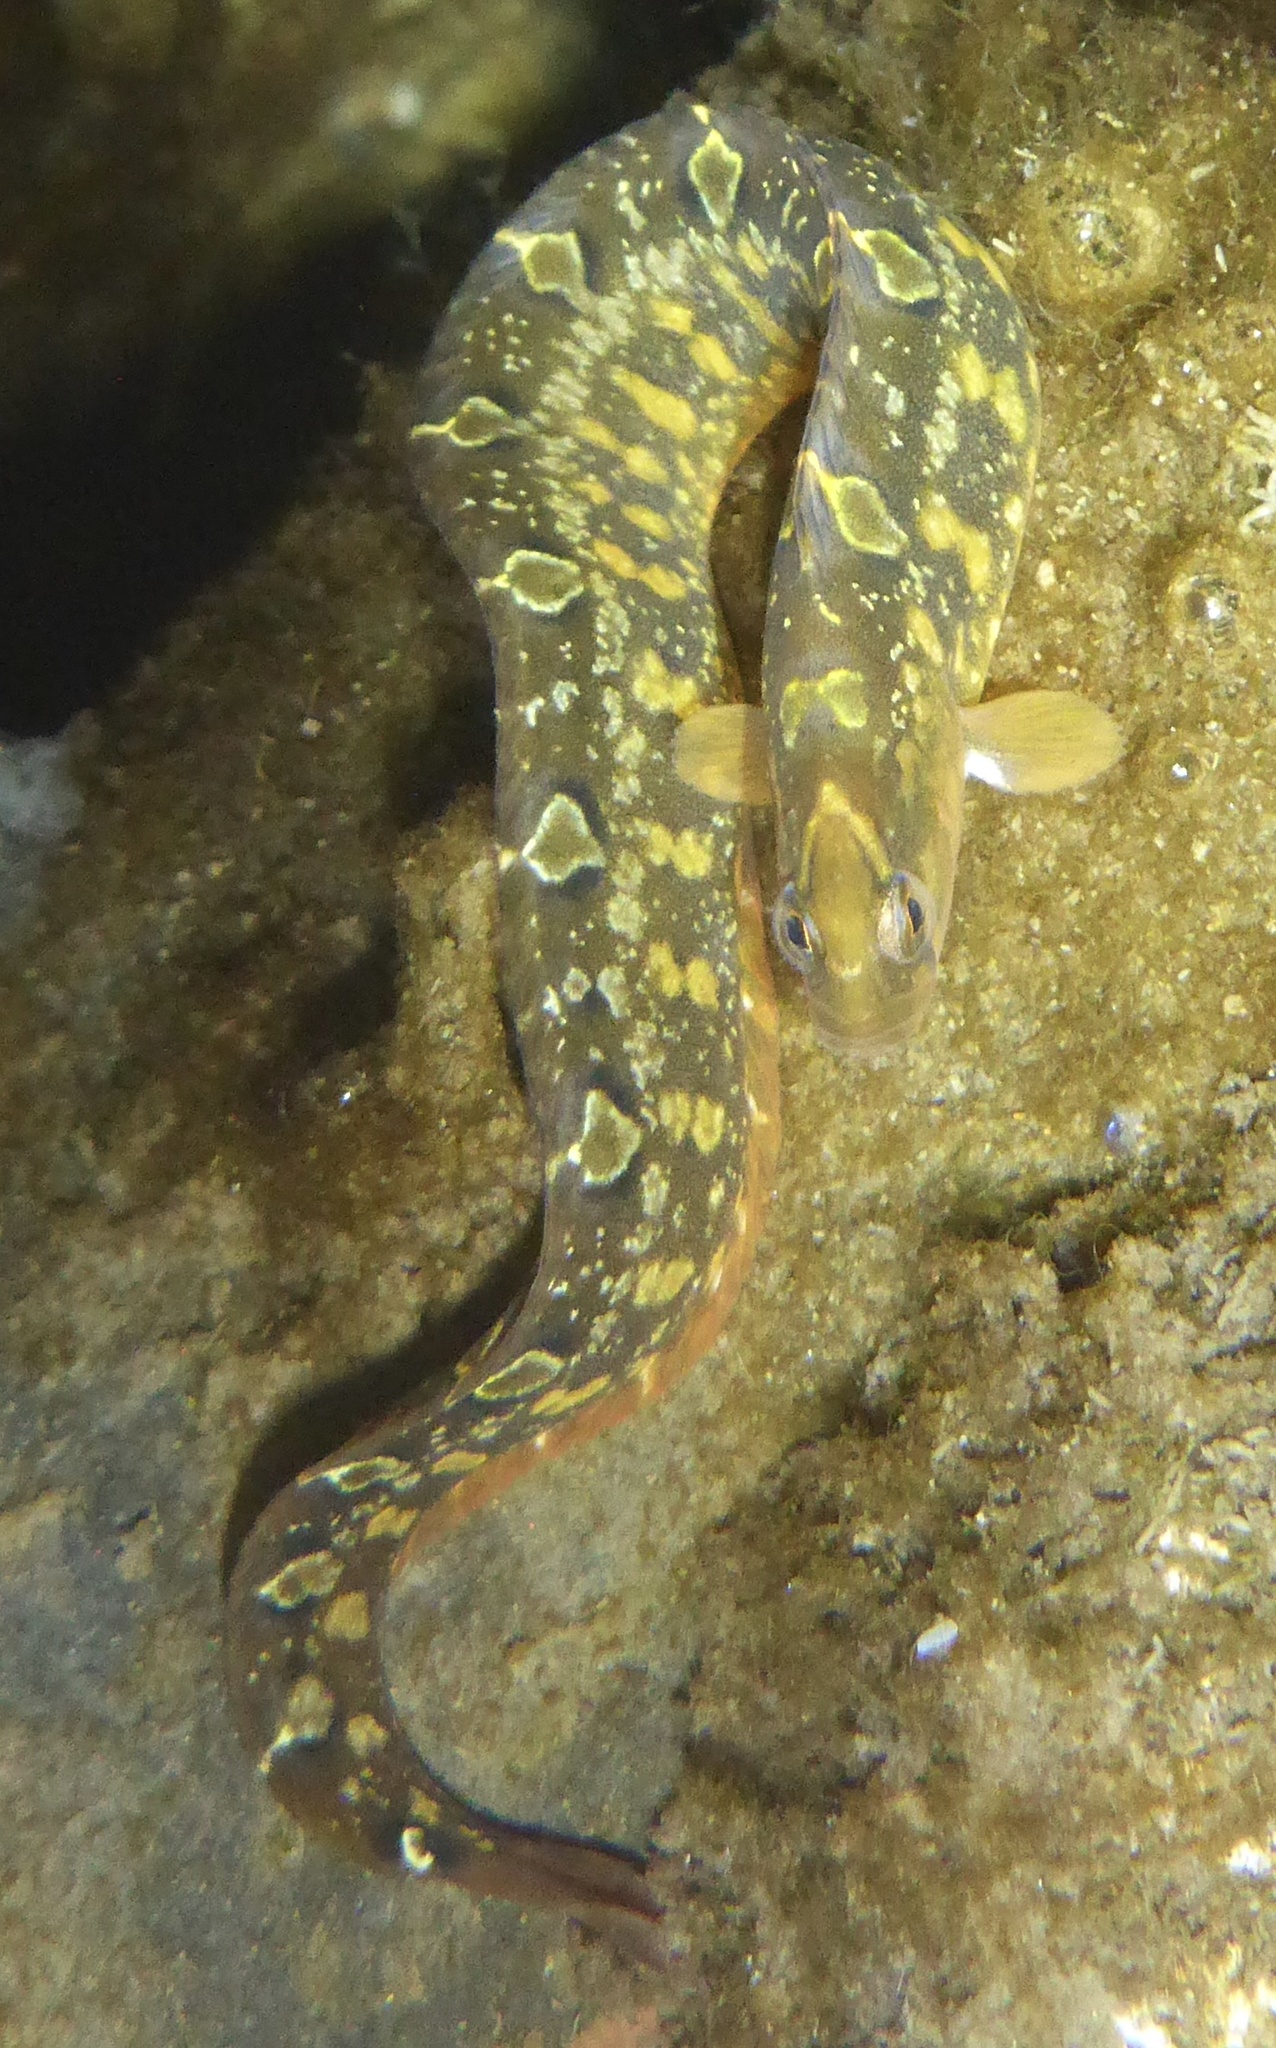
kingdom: Animalia
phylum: Chordata
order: Perciformes
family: Pholidae
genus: Pholis
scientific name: Pholis laeta
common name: Crescent gunnel
